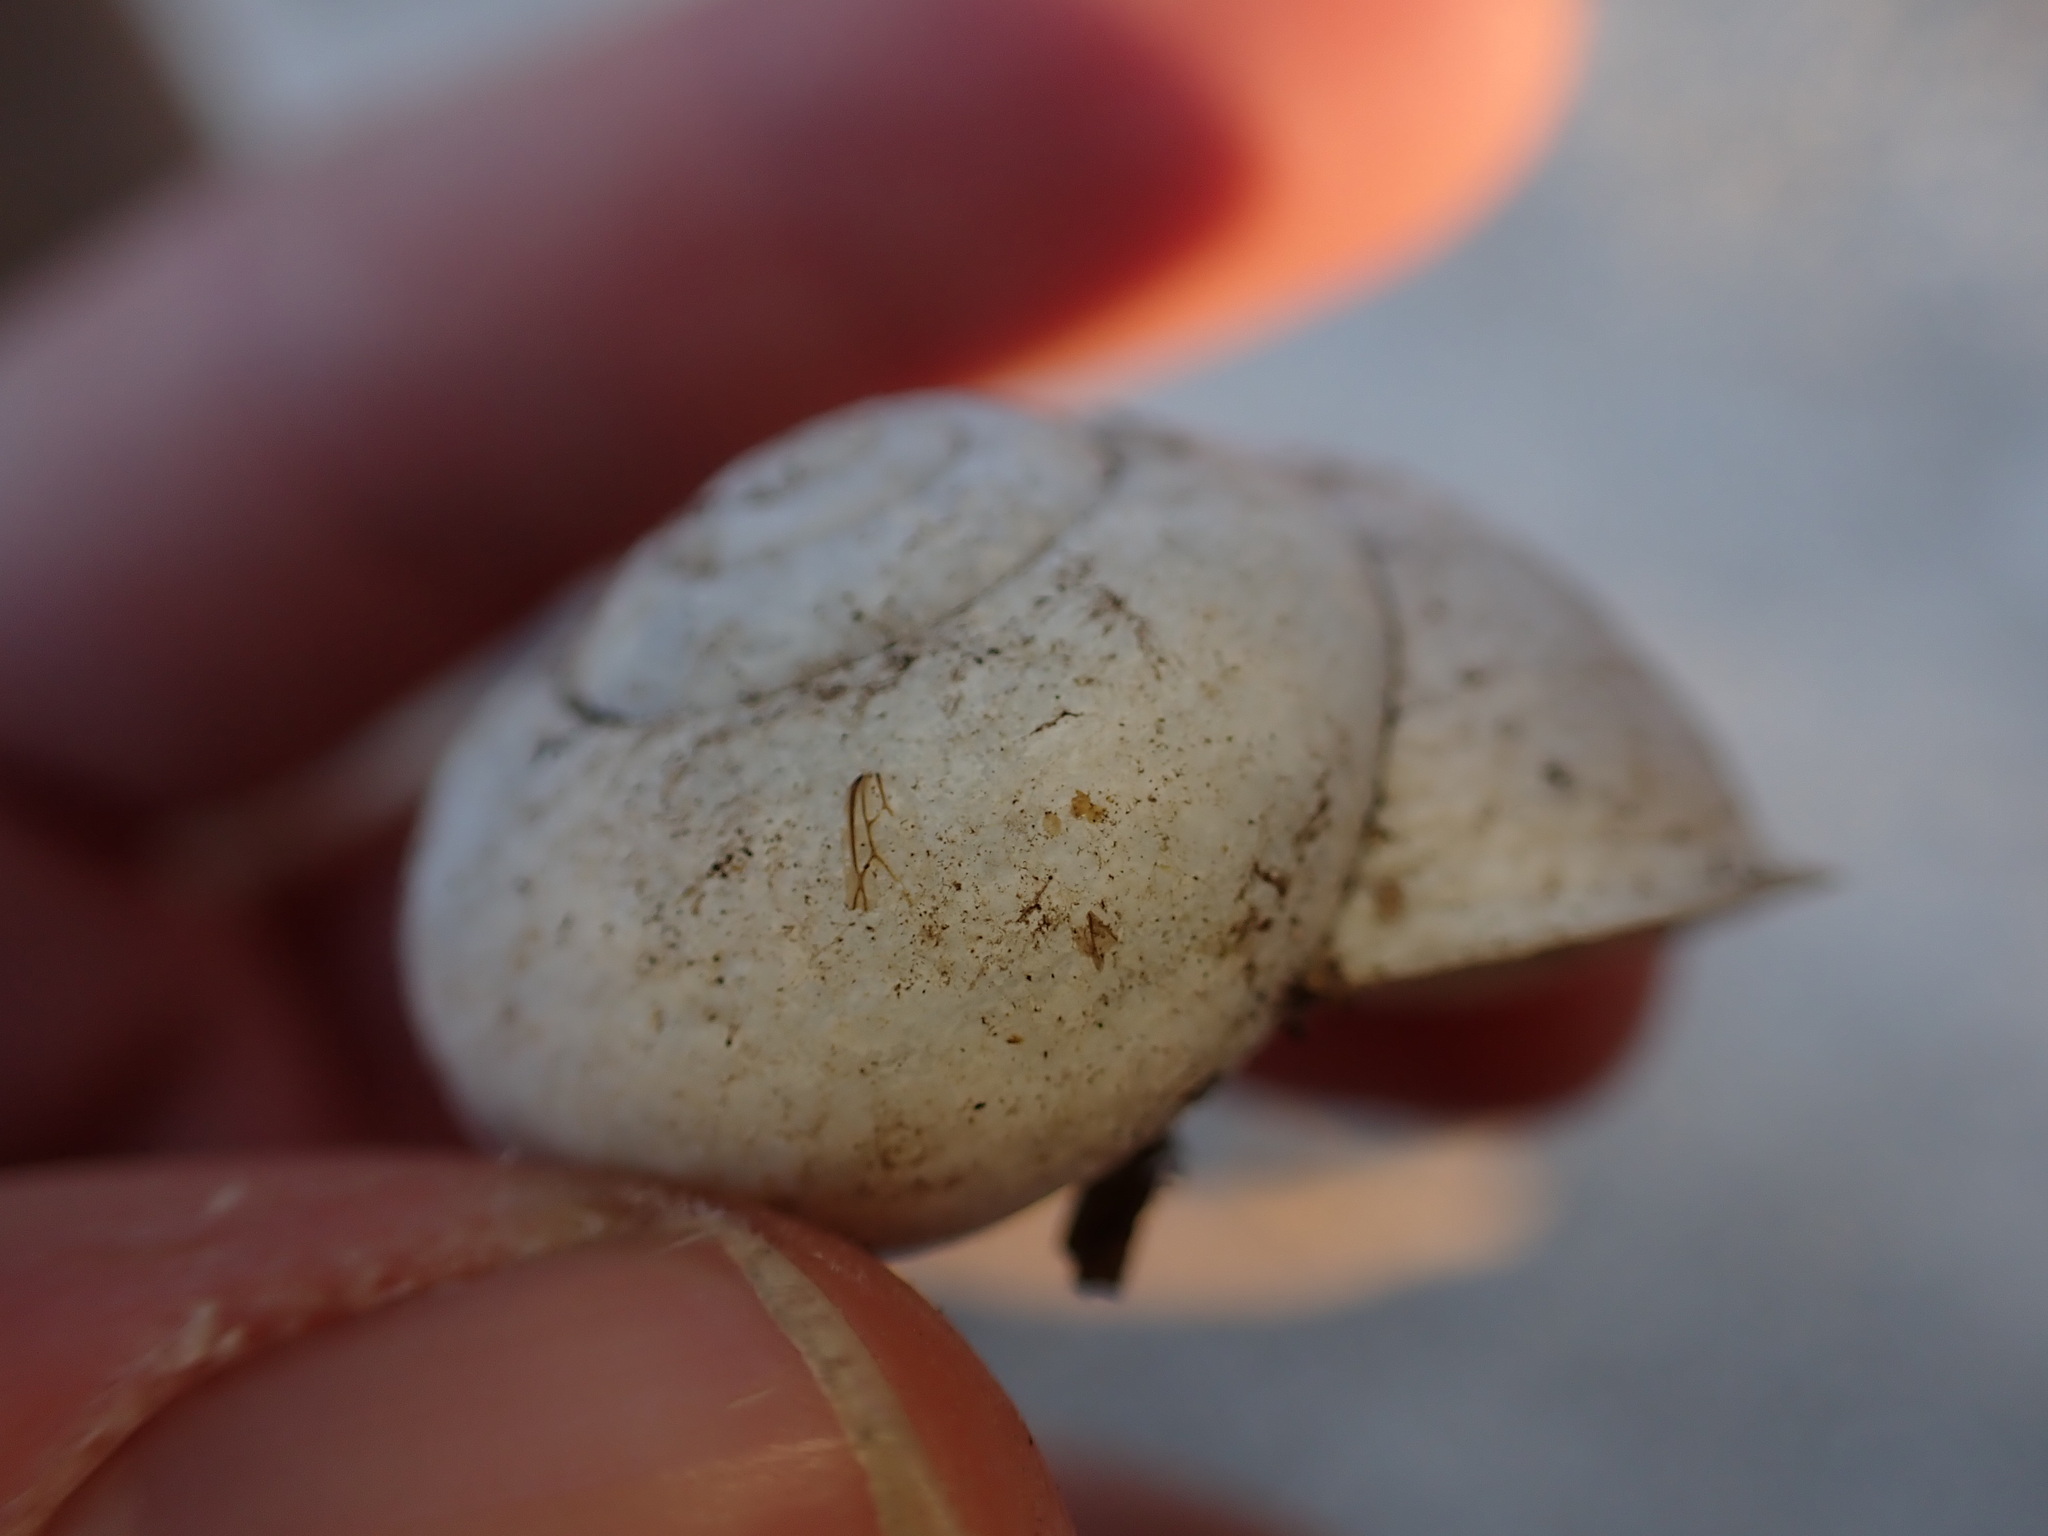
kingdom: Animalia
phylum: Mollusca
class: Gastropoda
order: Stylommatophora
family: Helicidae
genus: Eobania
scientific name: Eobania vermiculata
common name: Chocolateband snail
